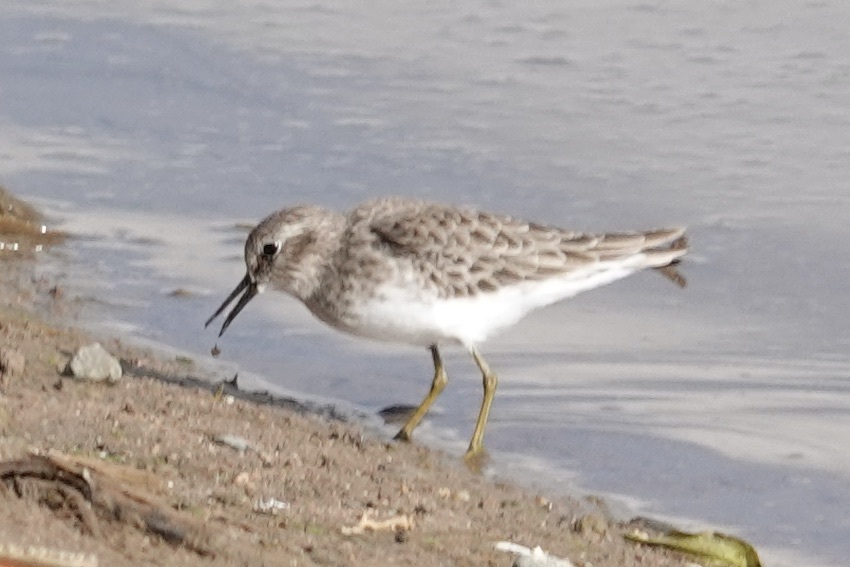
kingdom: Animalia
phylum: Chordata
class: Aves
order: Charadriiformes
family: Scolopacidae
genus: Calidris
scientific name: Calidris minutilla
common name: Least sandpiper
